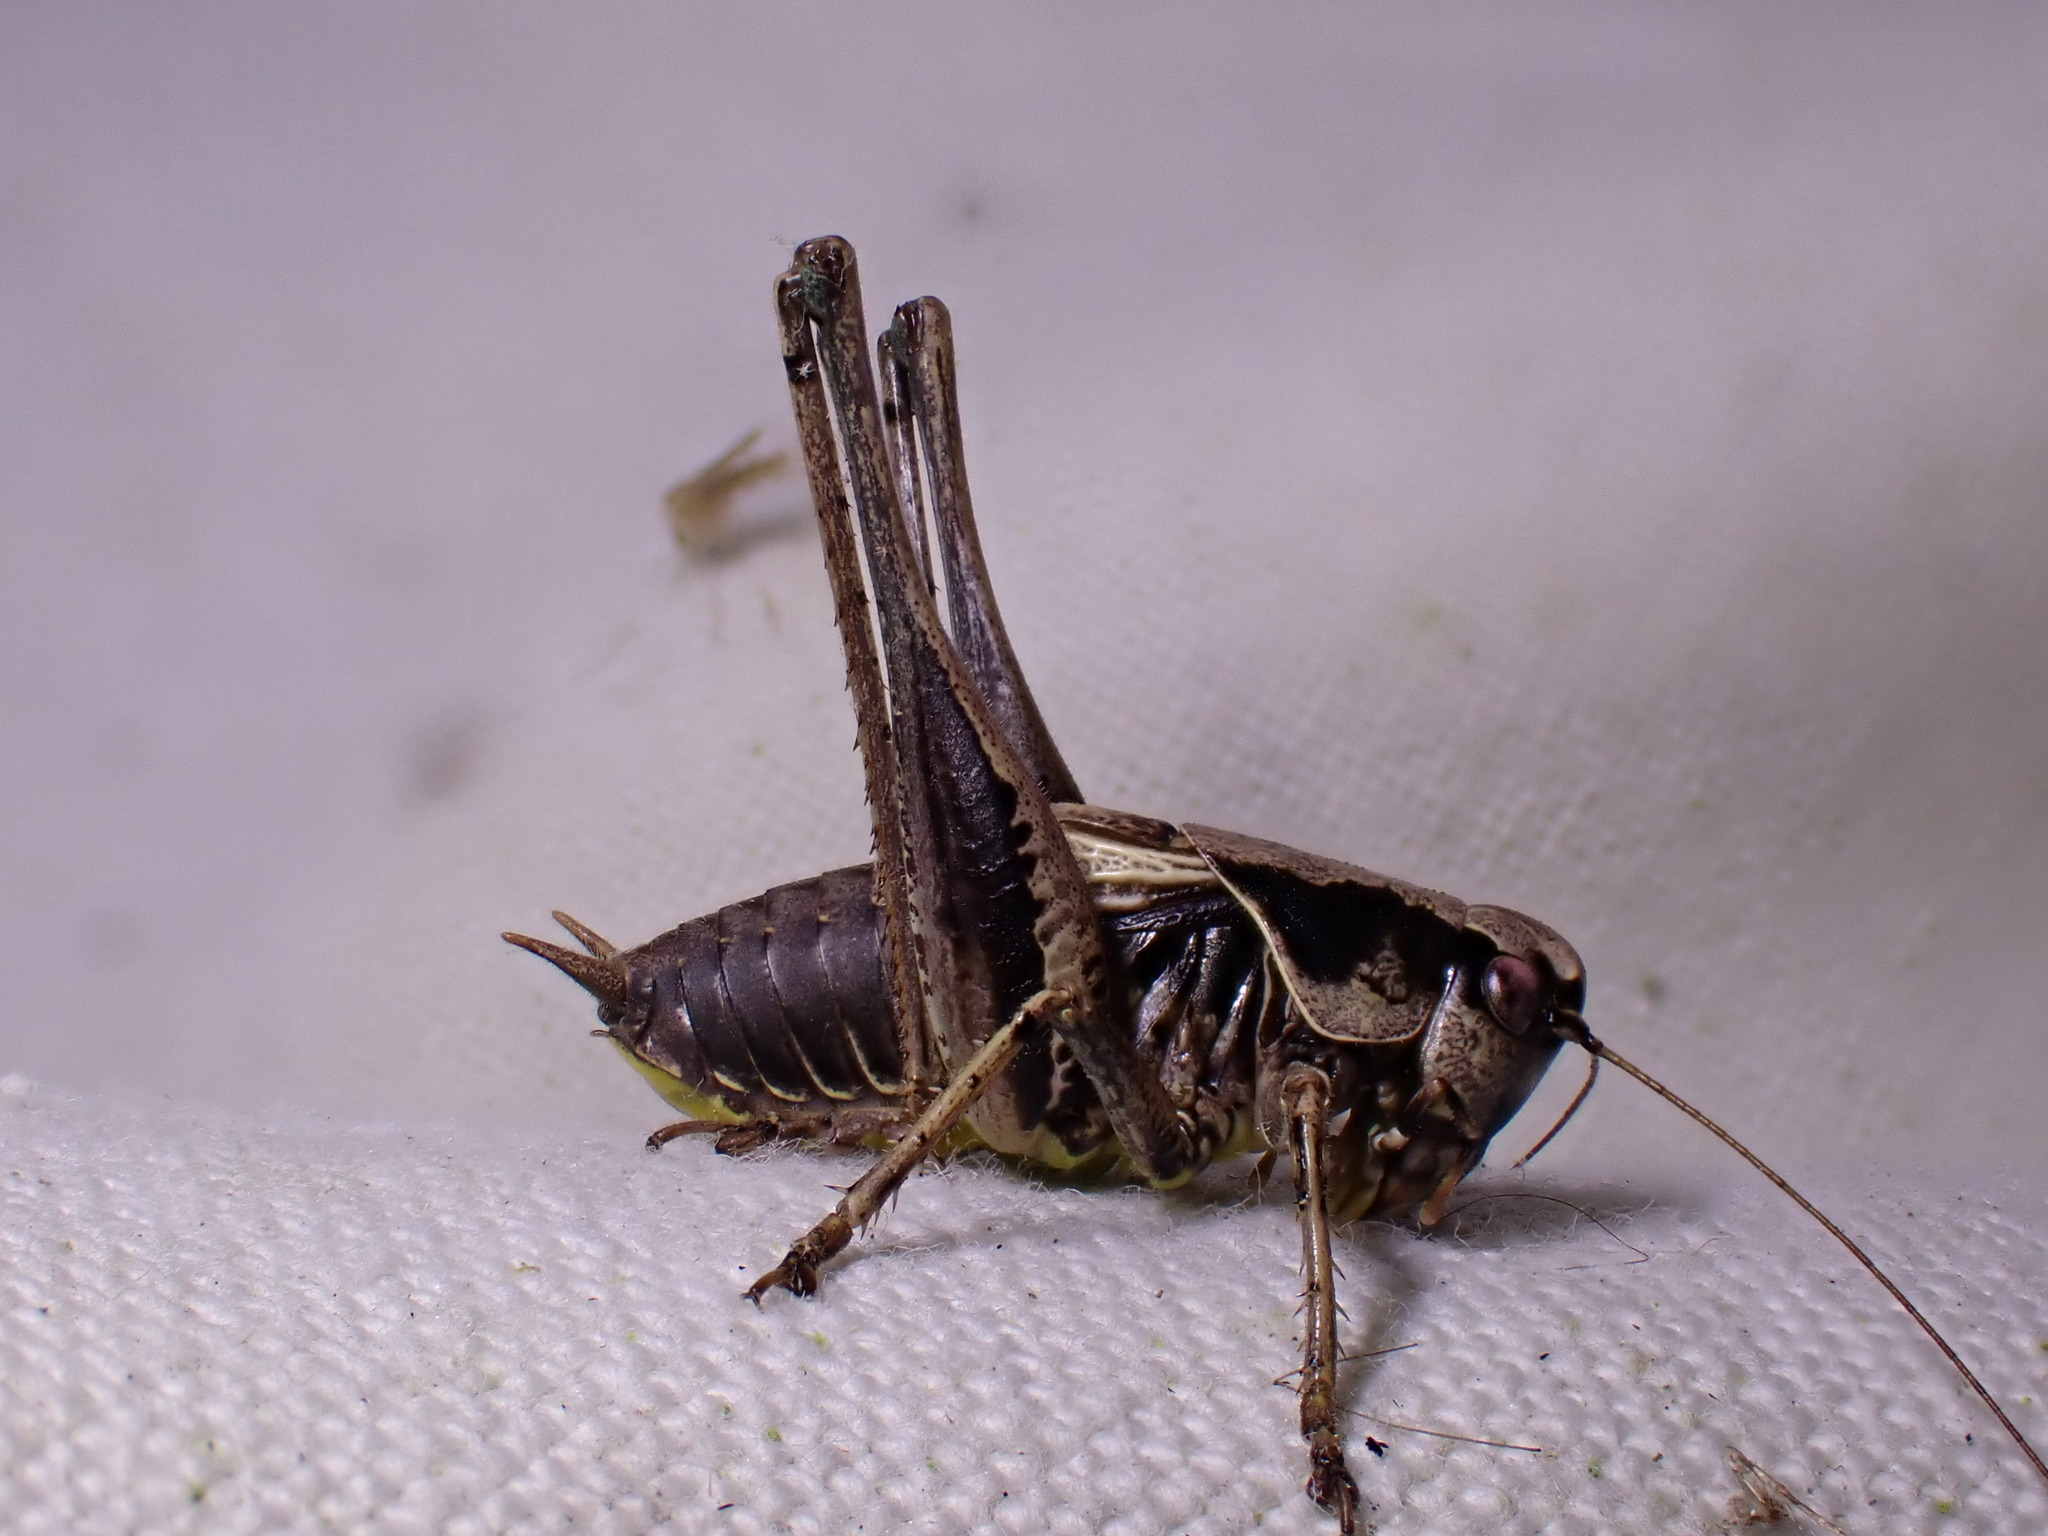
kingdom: Animalia
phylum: Arthropoda
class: Insecta
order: Orthoptera
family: Tettigoniidae
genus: Pholidoptera
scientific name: Pholidoptera griseoaptera
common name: Dark bush-cricket
